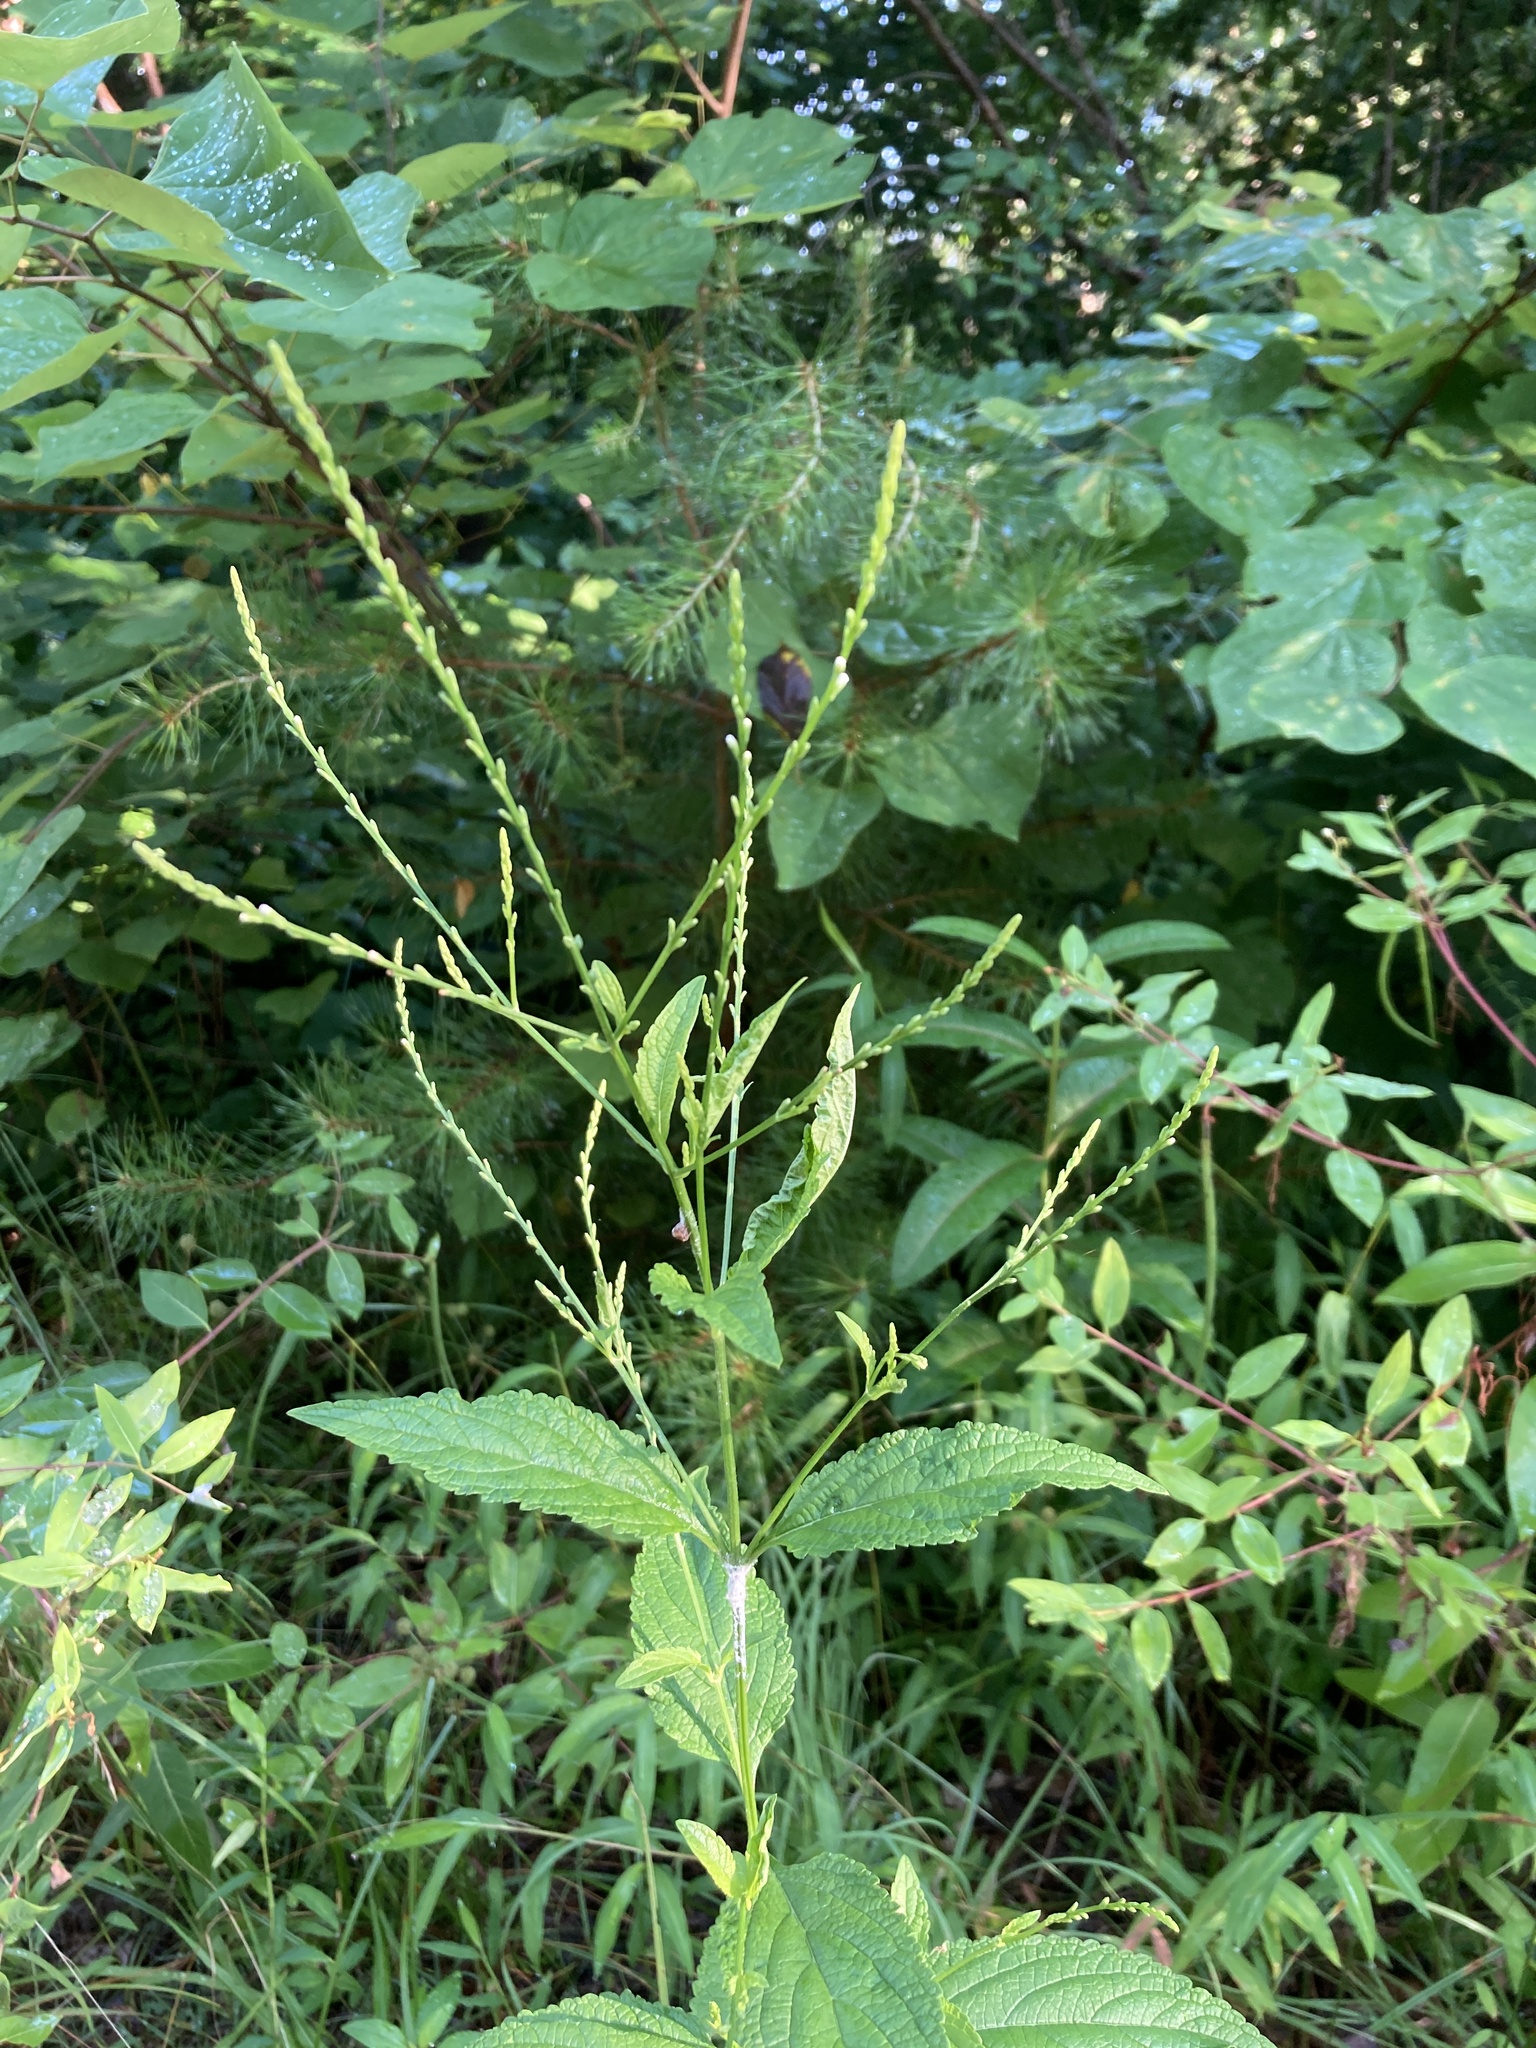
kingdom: Plantae
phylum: Tracheophyta
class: Magnoliopsida
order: Lamiales
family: Verbenaceae
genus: Verbena
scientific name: Verbena urticifolia
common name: Nettle-leaved vervain
